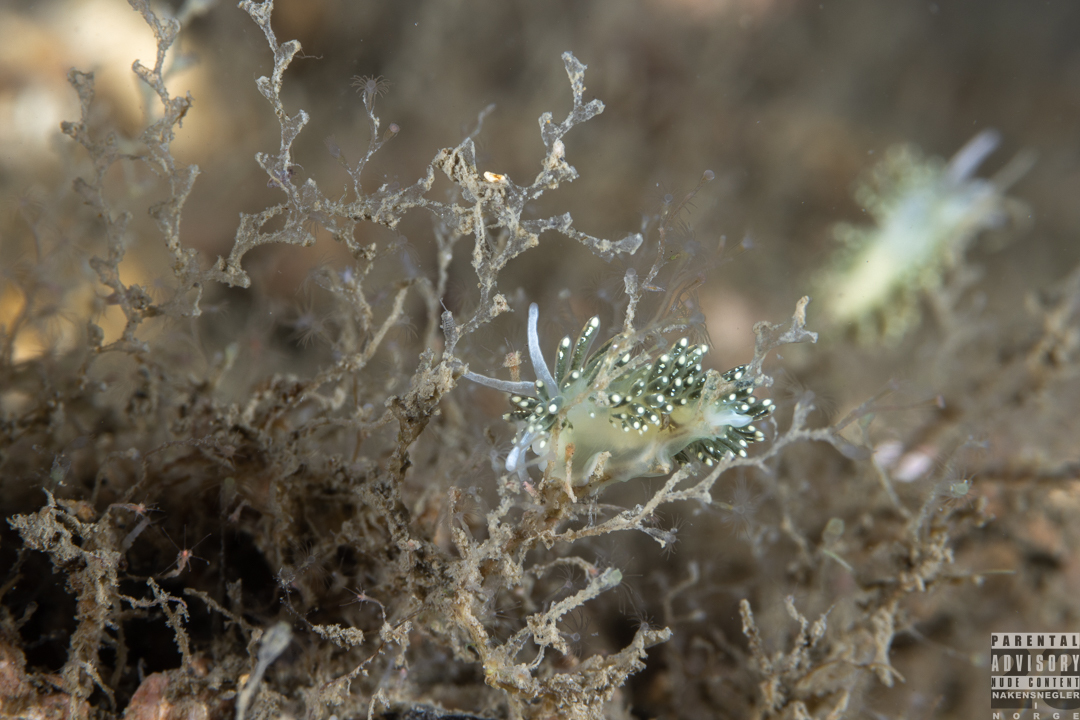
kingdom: Animalia
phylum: Mollusca
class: Gastropoda
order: Nudibranchia
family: Trinchesiidae
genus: Diaphoreolis
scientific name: Diaphoreolis viridis
